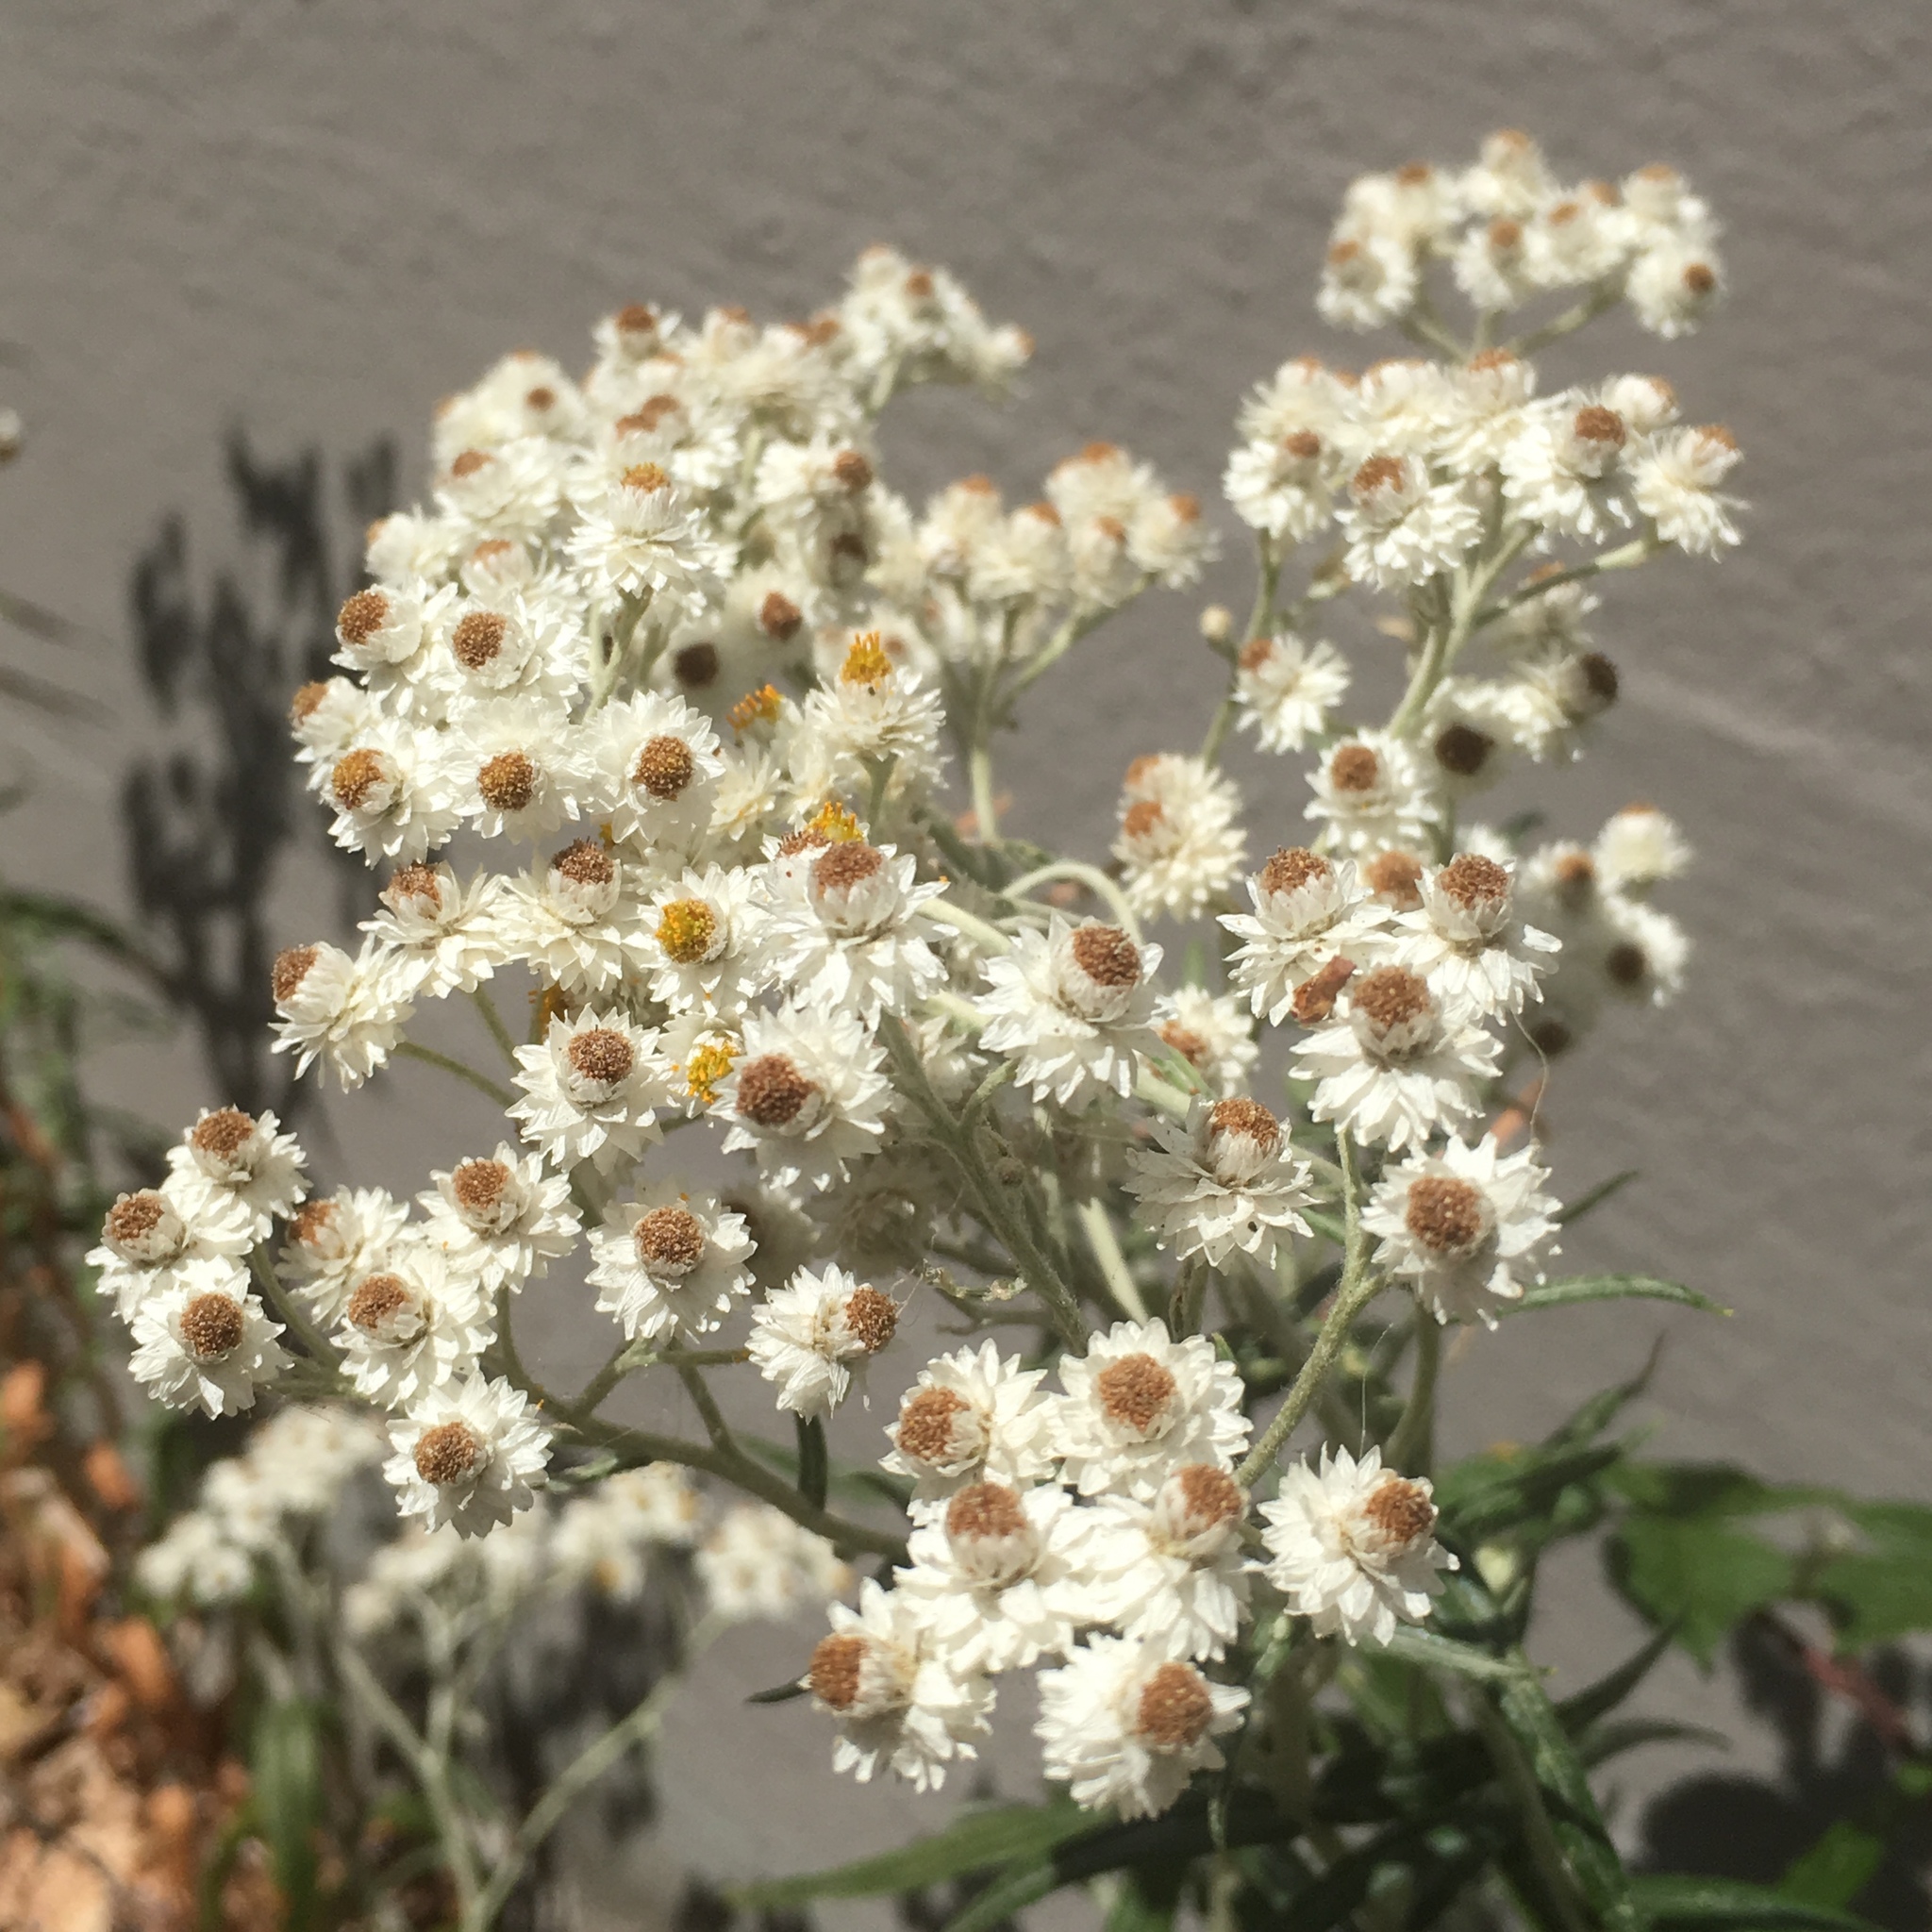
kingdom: Plantae
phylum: Tracheophyta
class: Magnoliopsida
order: Asterales
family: Asteraceae
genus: Anaphalis
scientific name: Anaphalis margaritacea
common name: Pearly everlasting
